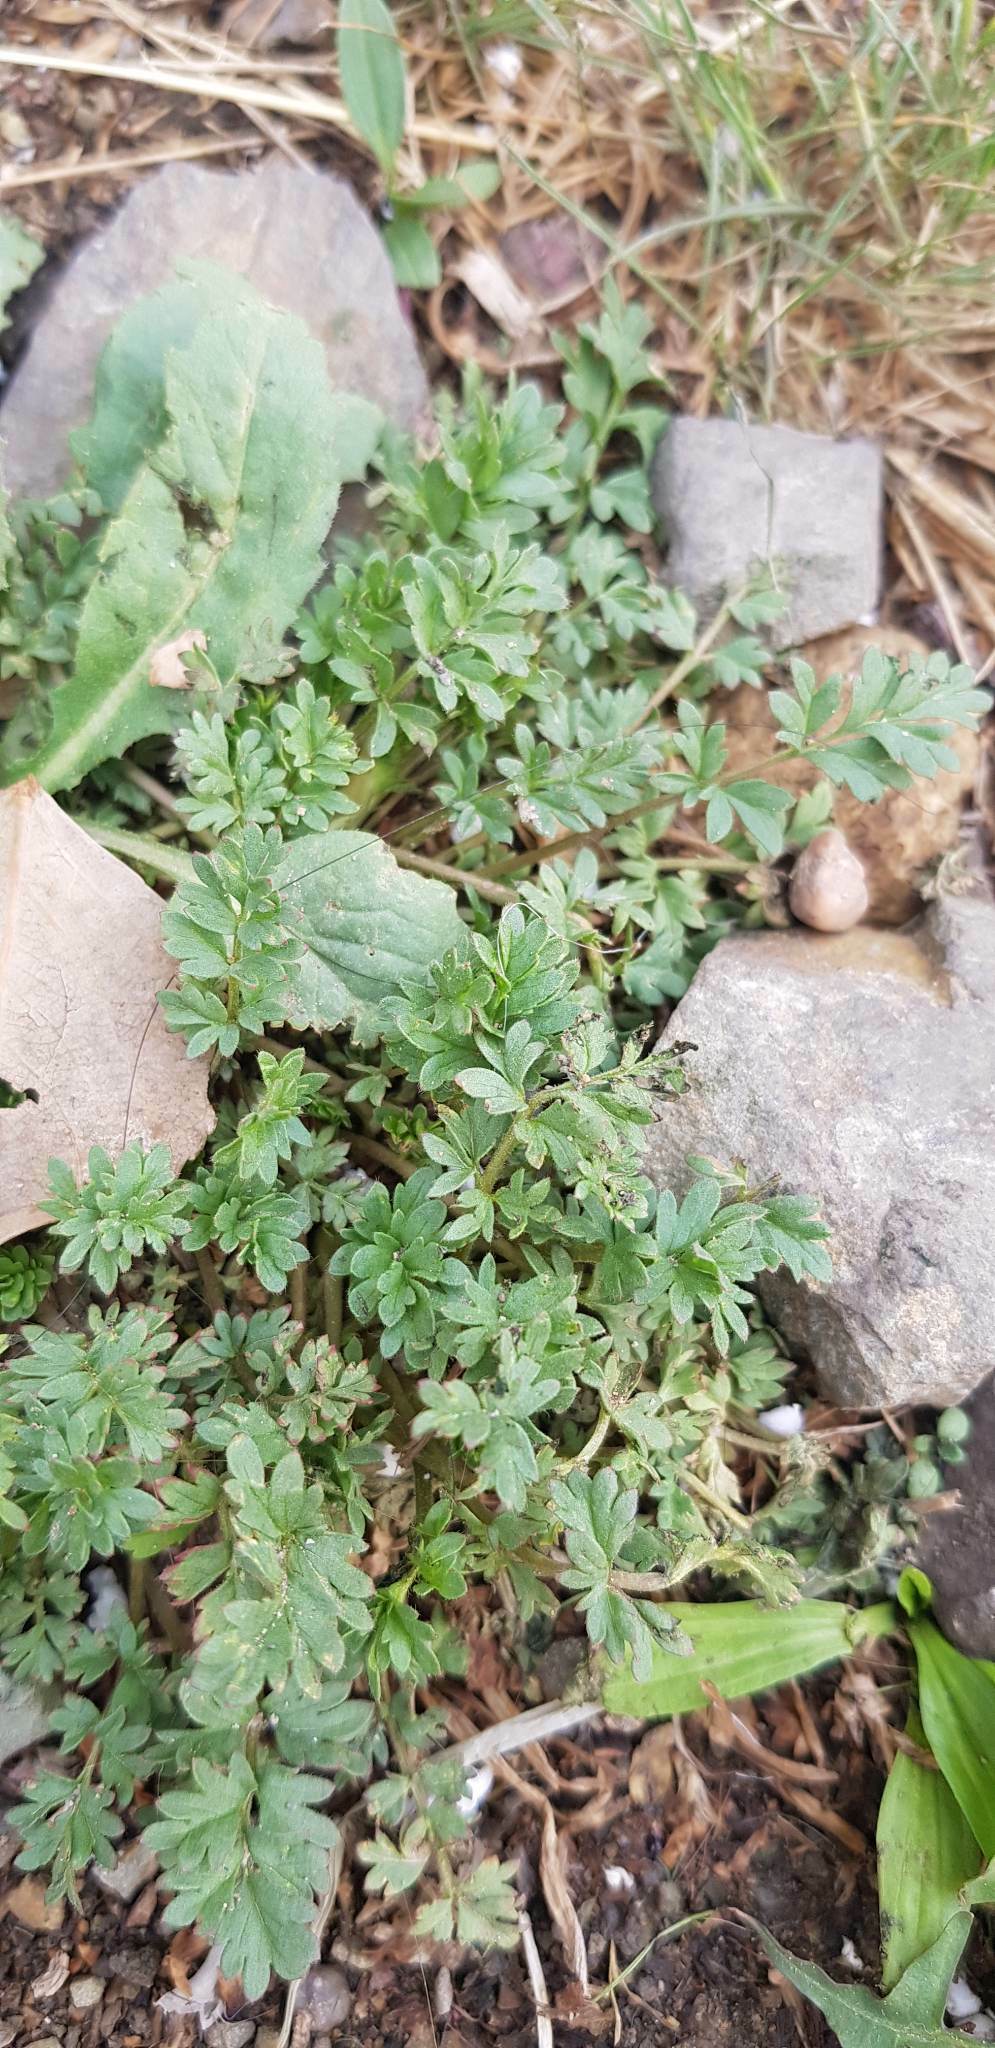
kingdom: Plantae
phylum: Tracheophyta
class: Magnoliopsida
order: Rosales
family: Rosaceae
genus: Potentilla
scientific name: Potentilla supina
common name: Prostrate cinquefoil
